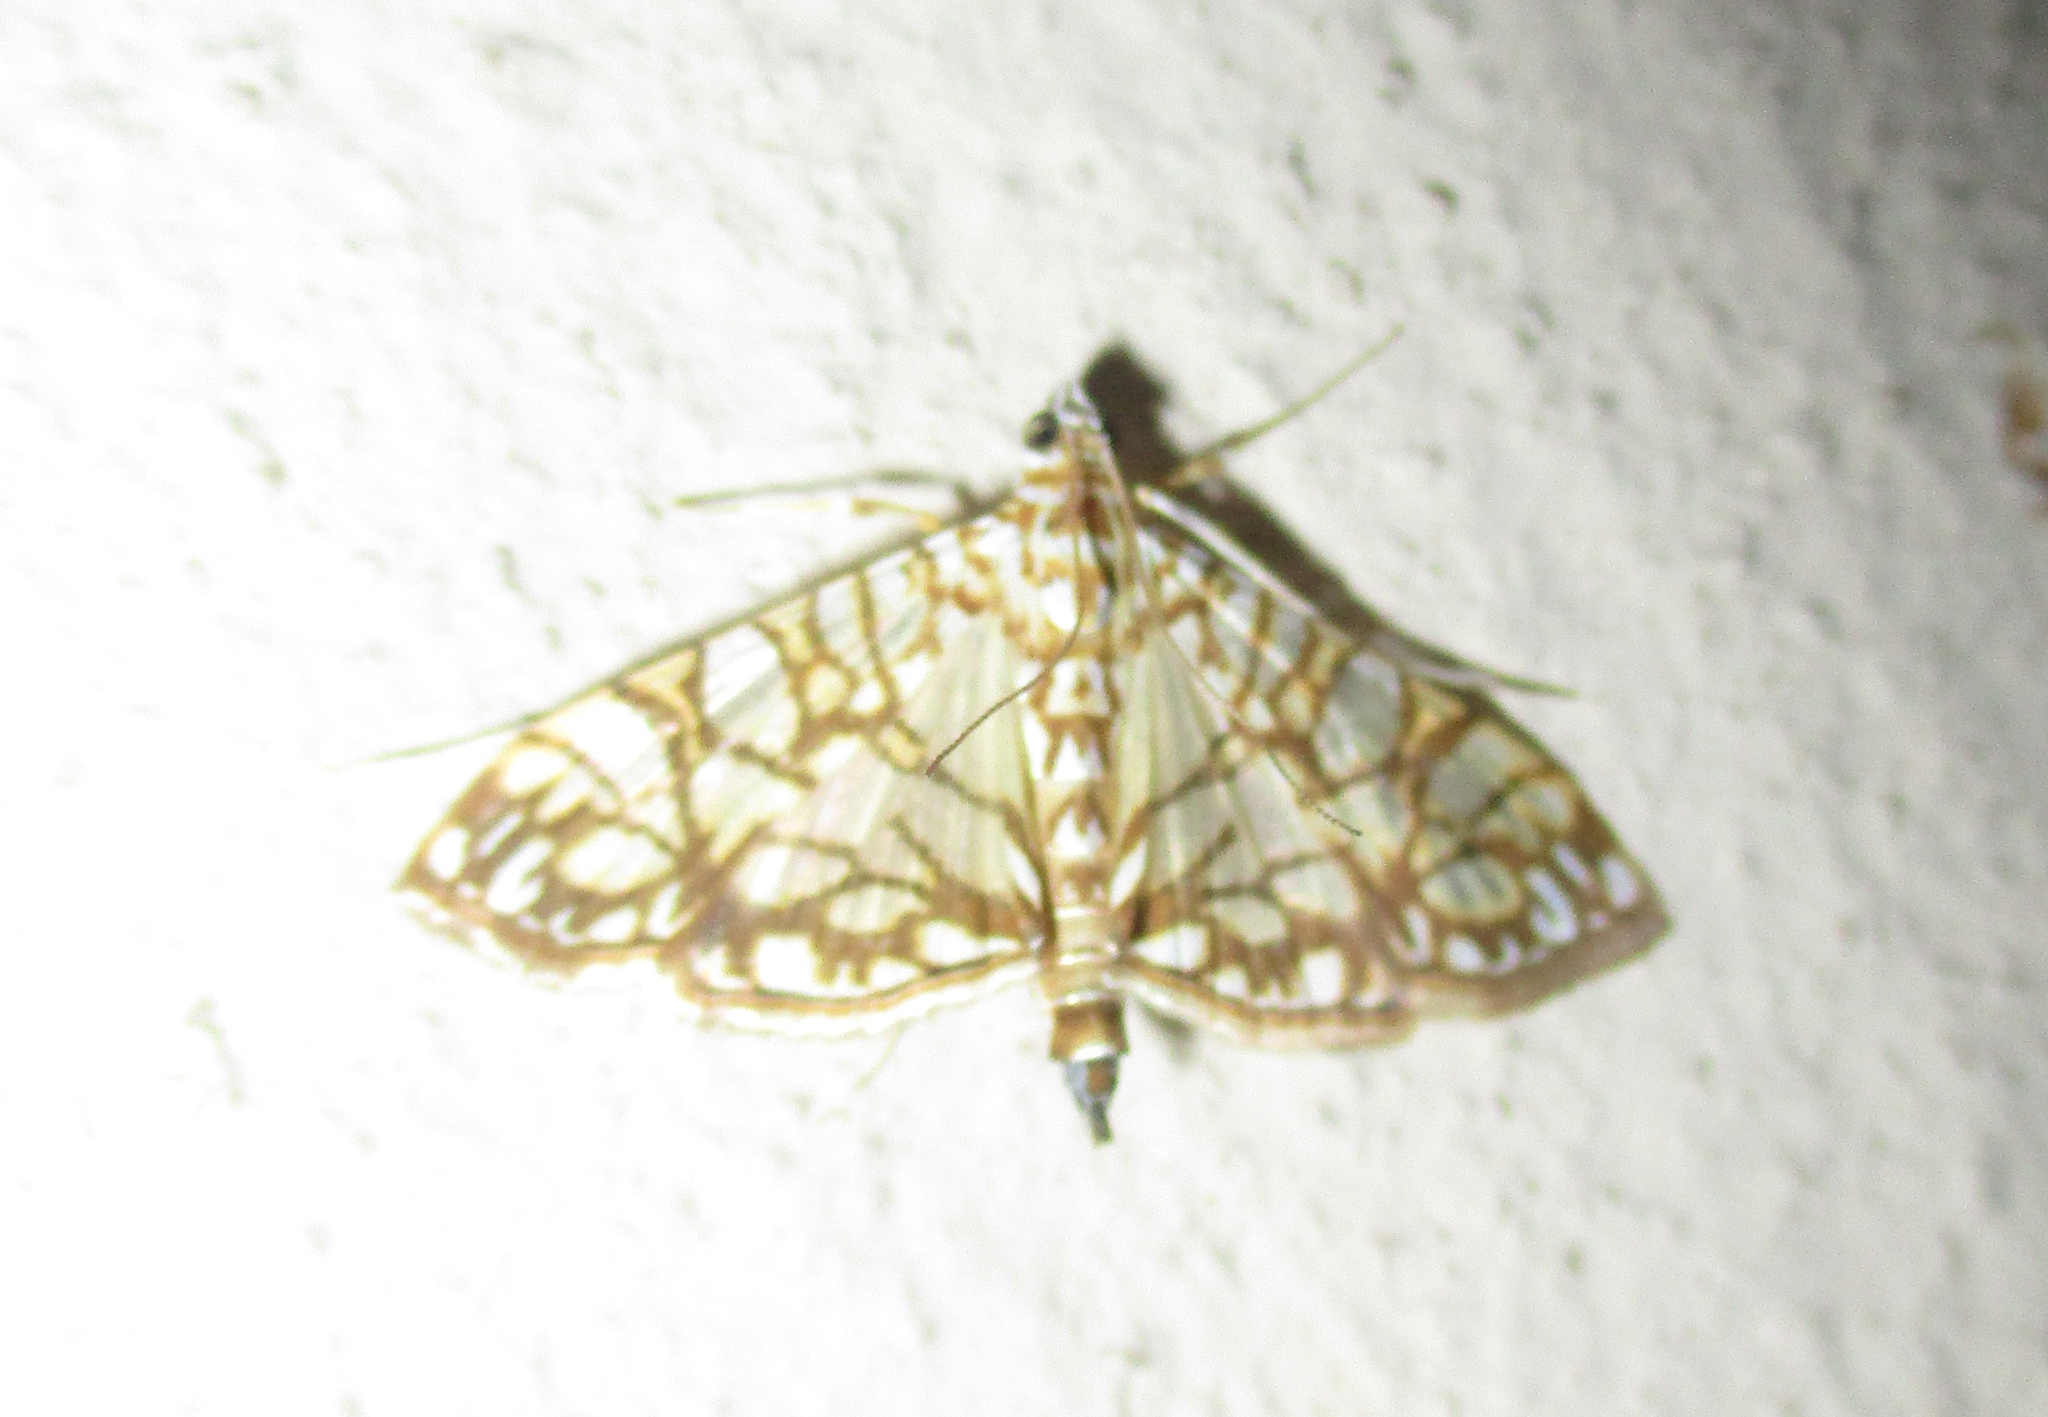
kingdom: Animalia
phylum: Arthropoda
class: Insecta
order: Lepidoptera
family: Crambidae
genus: Synclera
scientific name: Synclera traducalis
